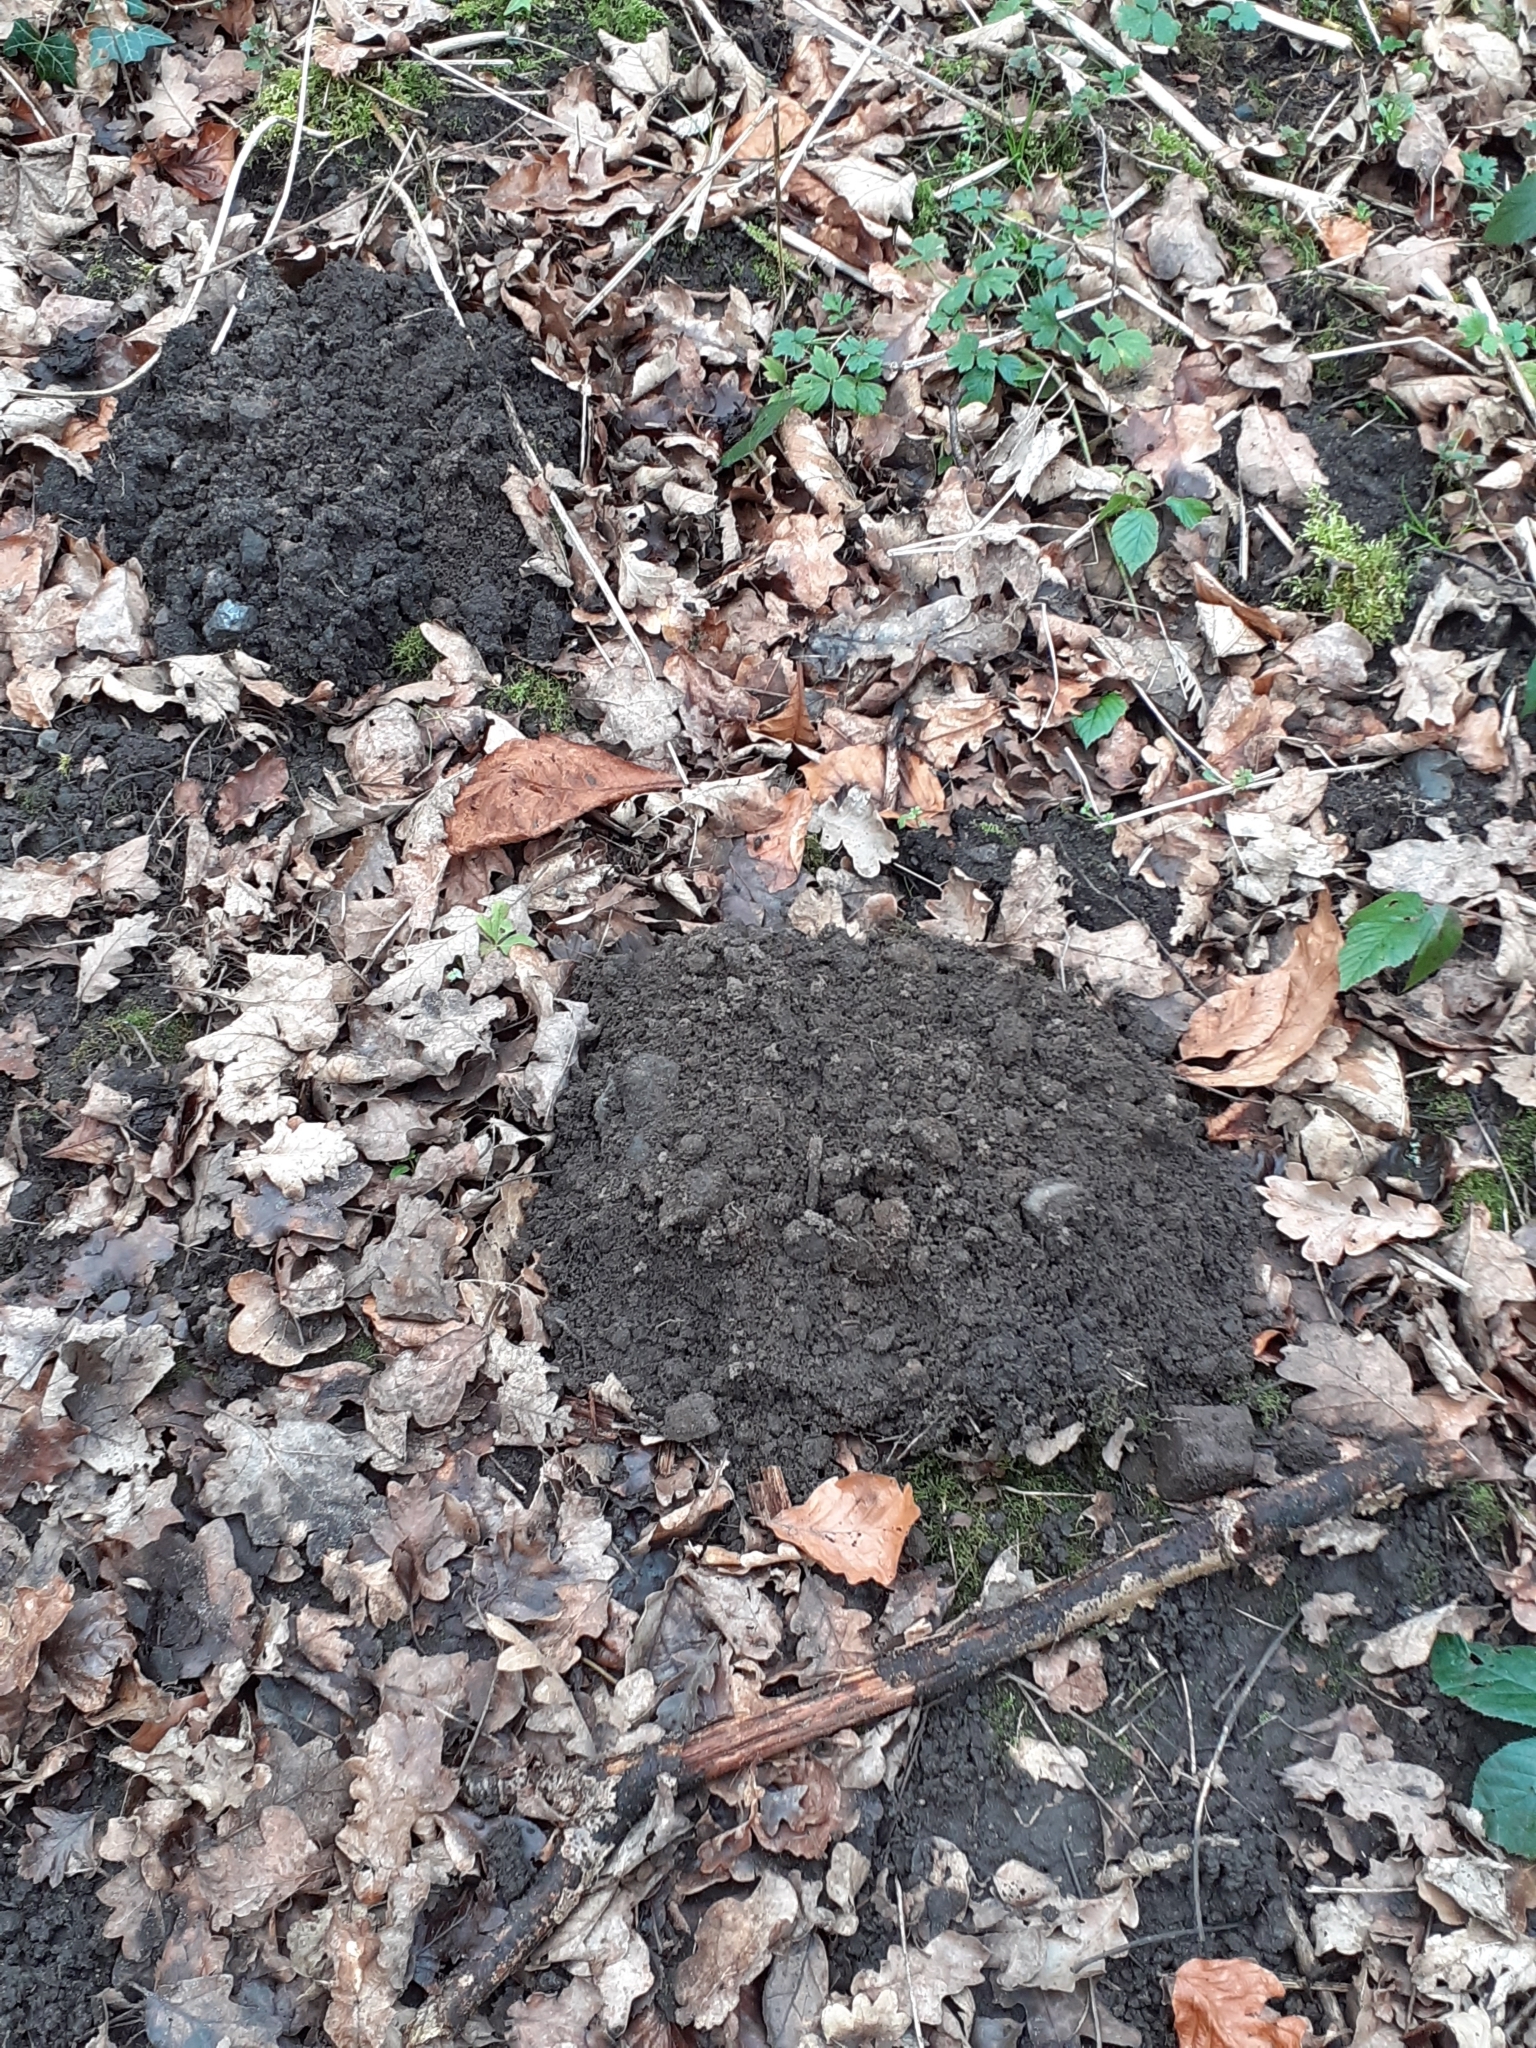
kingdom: Animalia
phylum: Chordata
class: Mammalia
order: Soricomorpha
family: Talpidae
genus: Talpa
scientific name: Talpa europaea
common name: European mole
